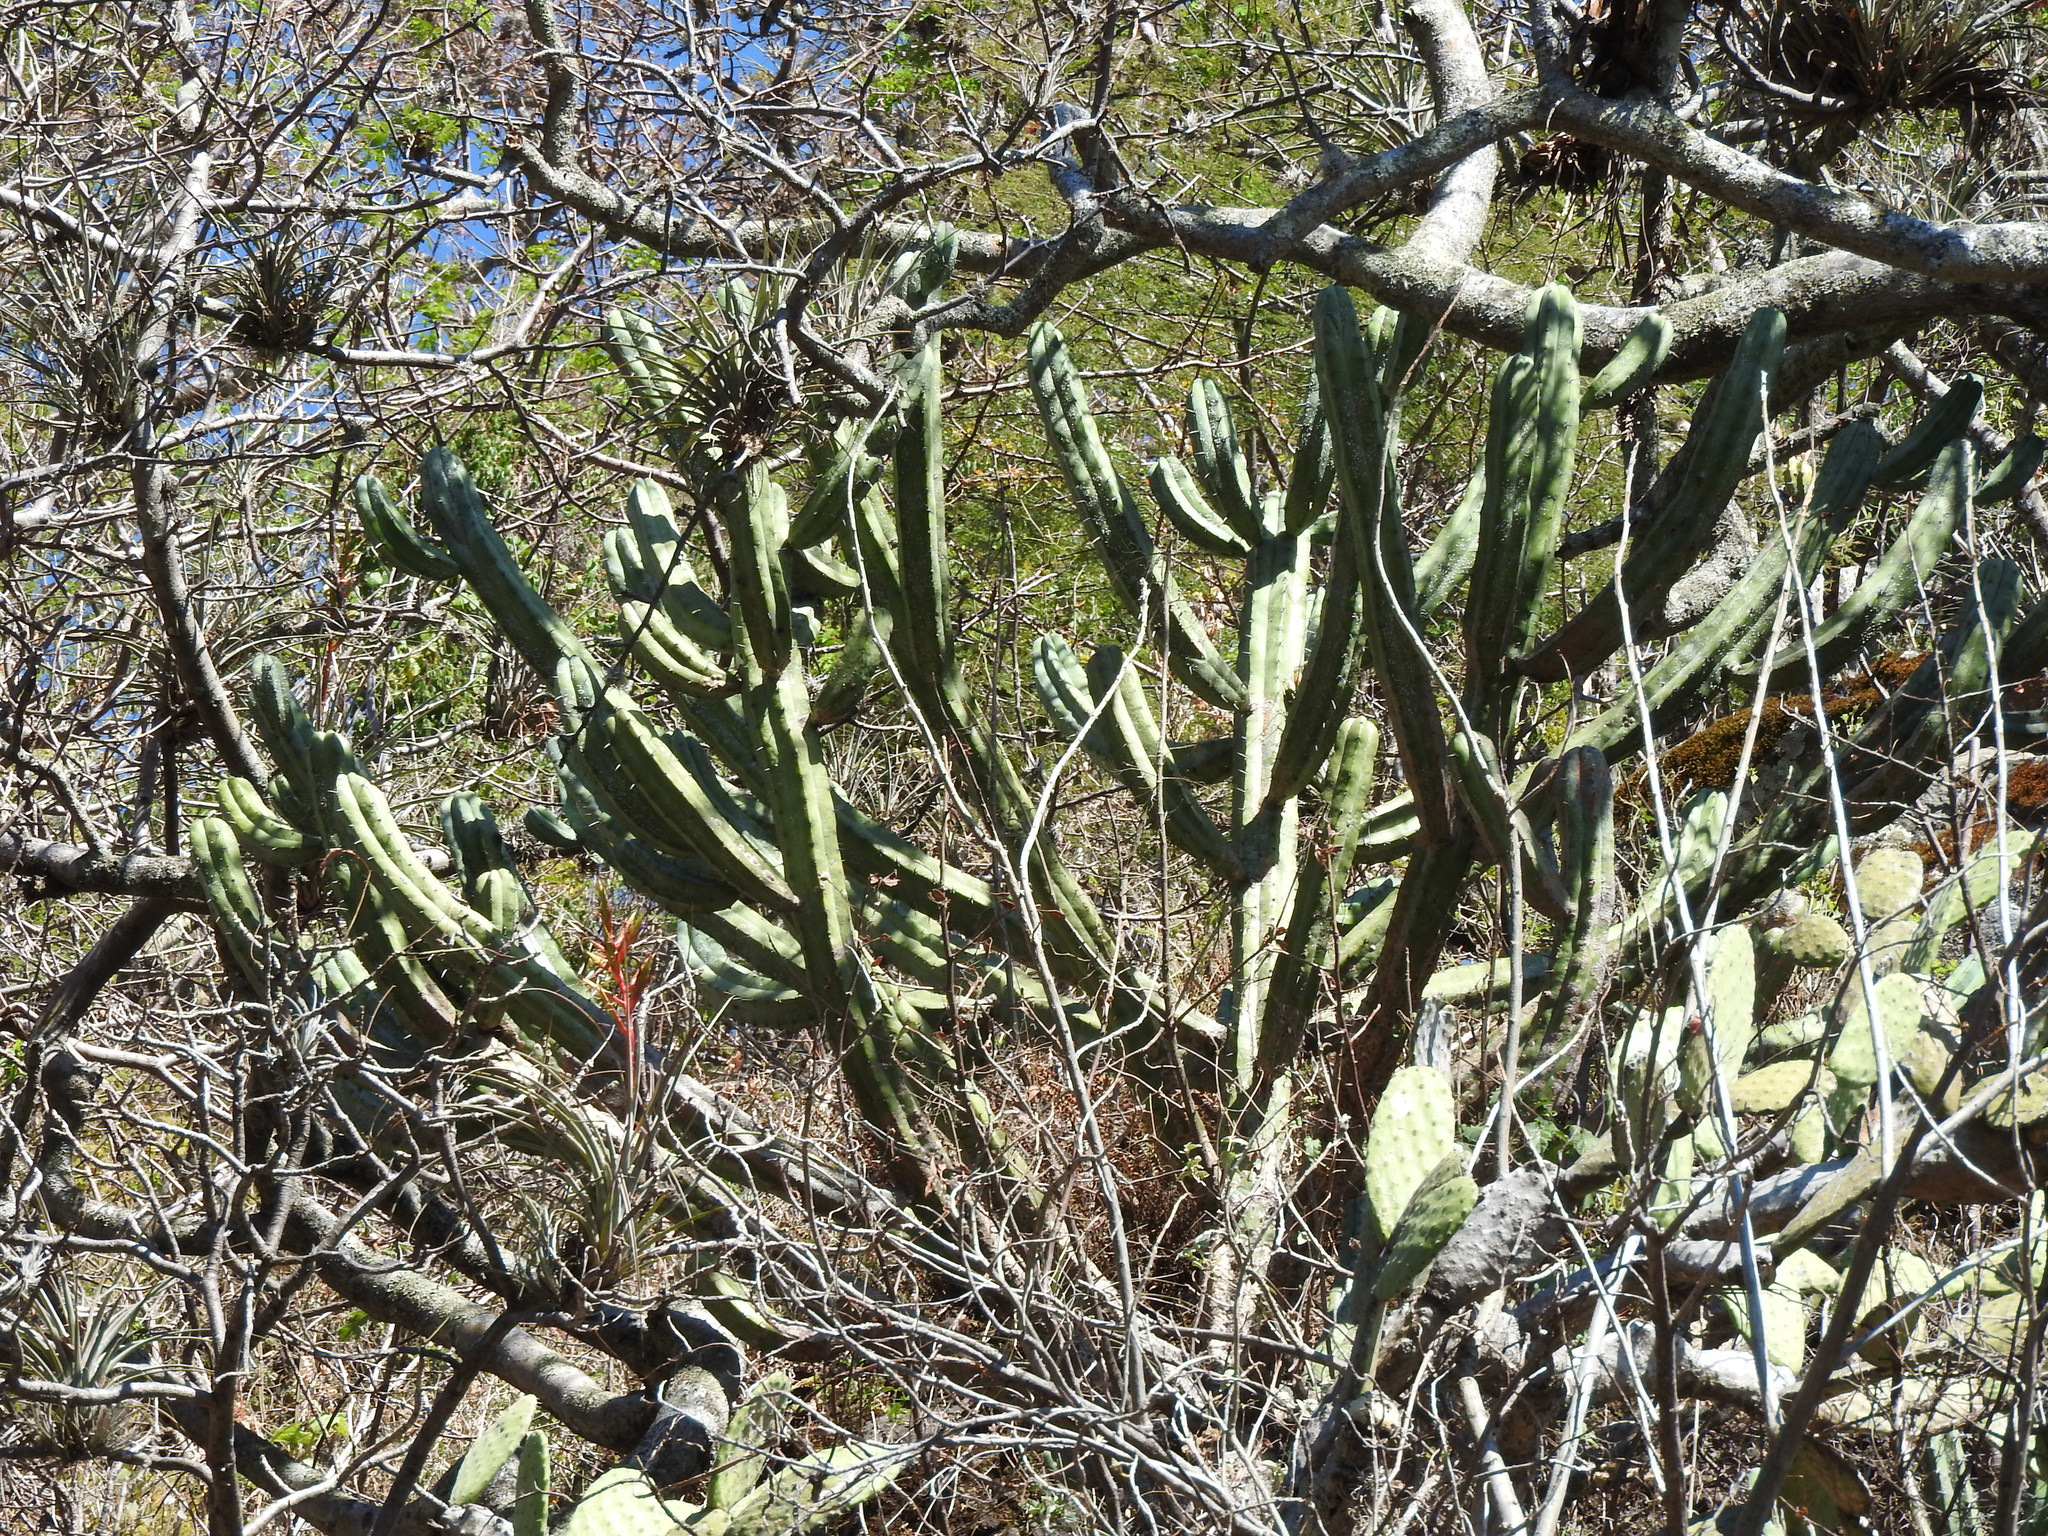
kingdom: Plantae
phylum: Tracheophyta
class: Magnoliopsida
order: Caryophyllales
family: Cactaceae
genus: Myrtillocactus
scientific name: Myrtillocactus geometrizans
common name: Bilberry cactus
